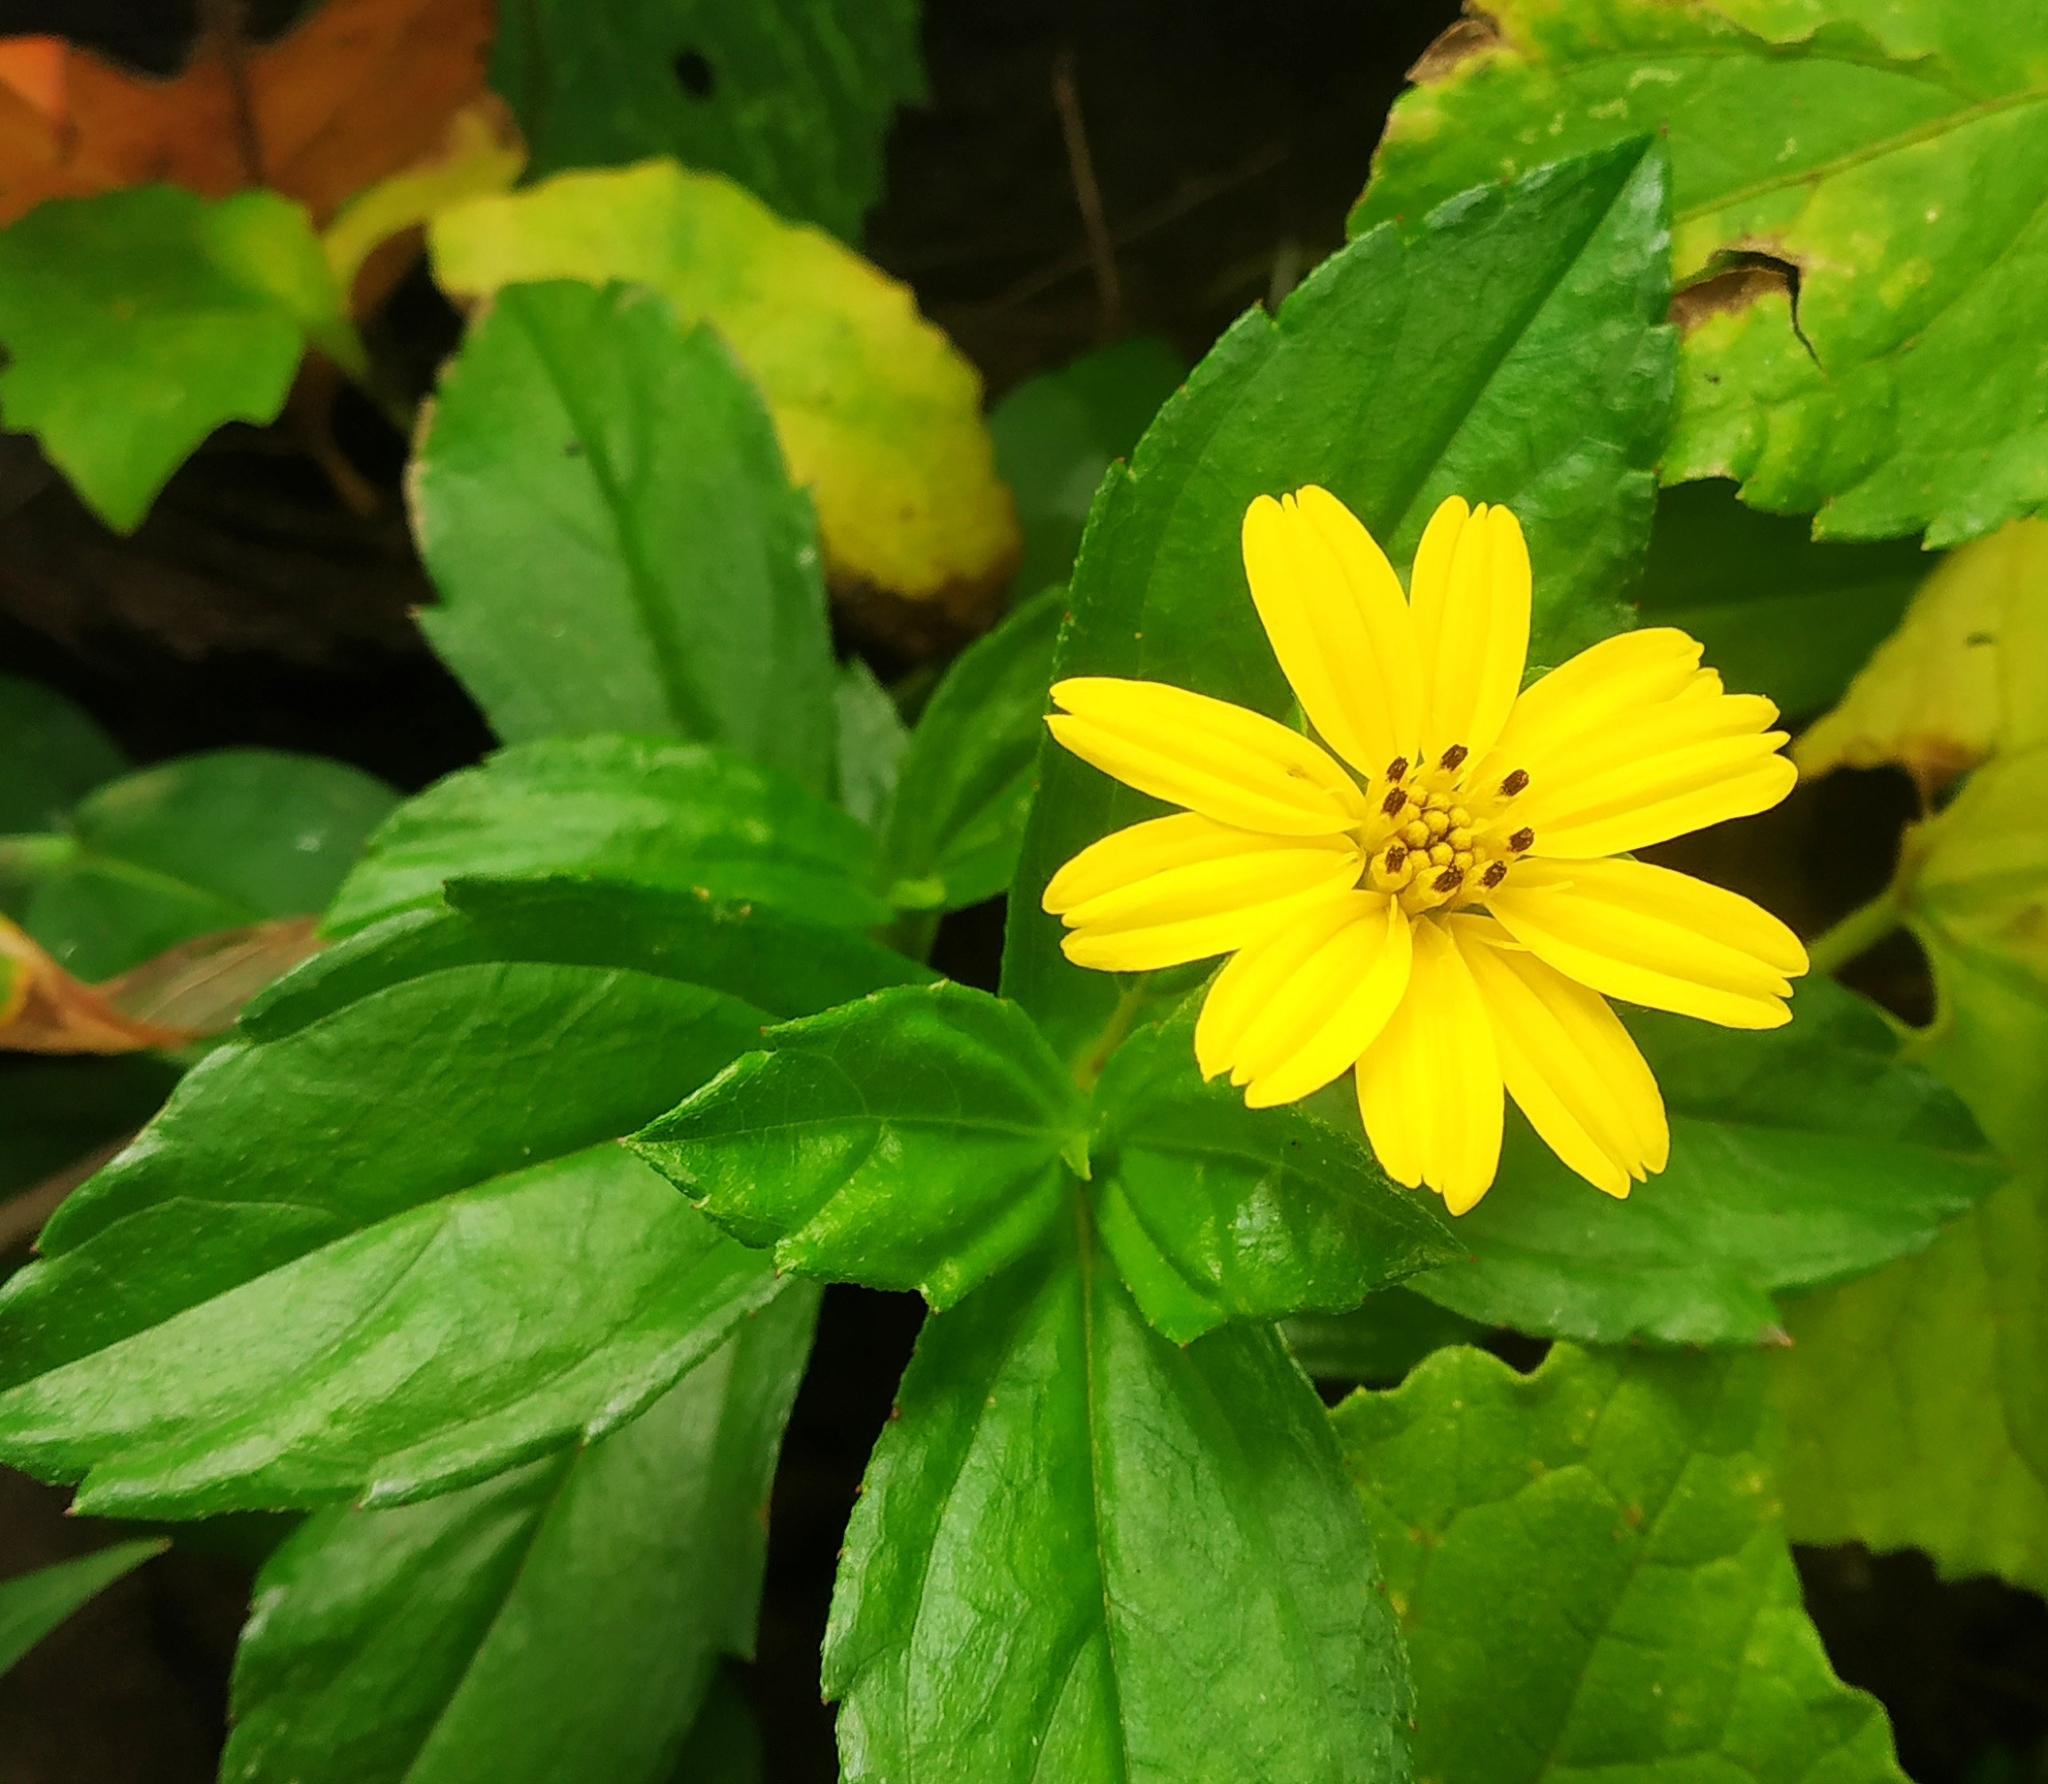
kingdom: Plantae
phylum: Tracheophyta
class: Magnoliopsida
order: Asterales
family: Asteraceae
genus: Sphagneticola
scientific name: Sphagneticola trilobata
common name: Bay biscayne creeping-oxeye
